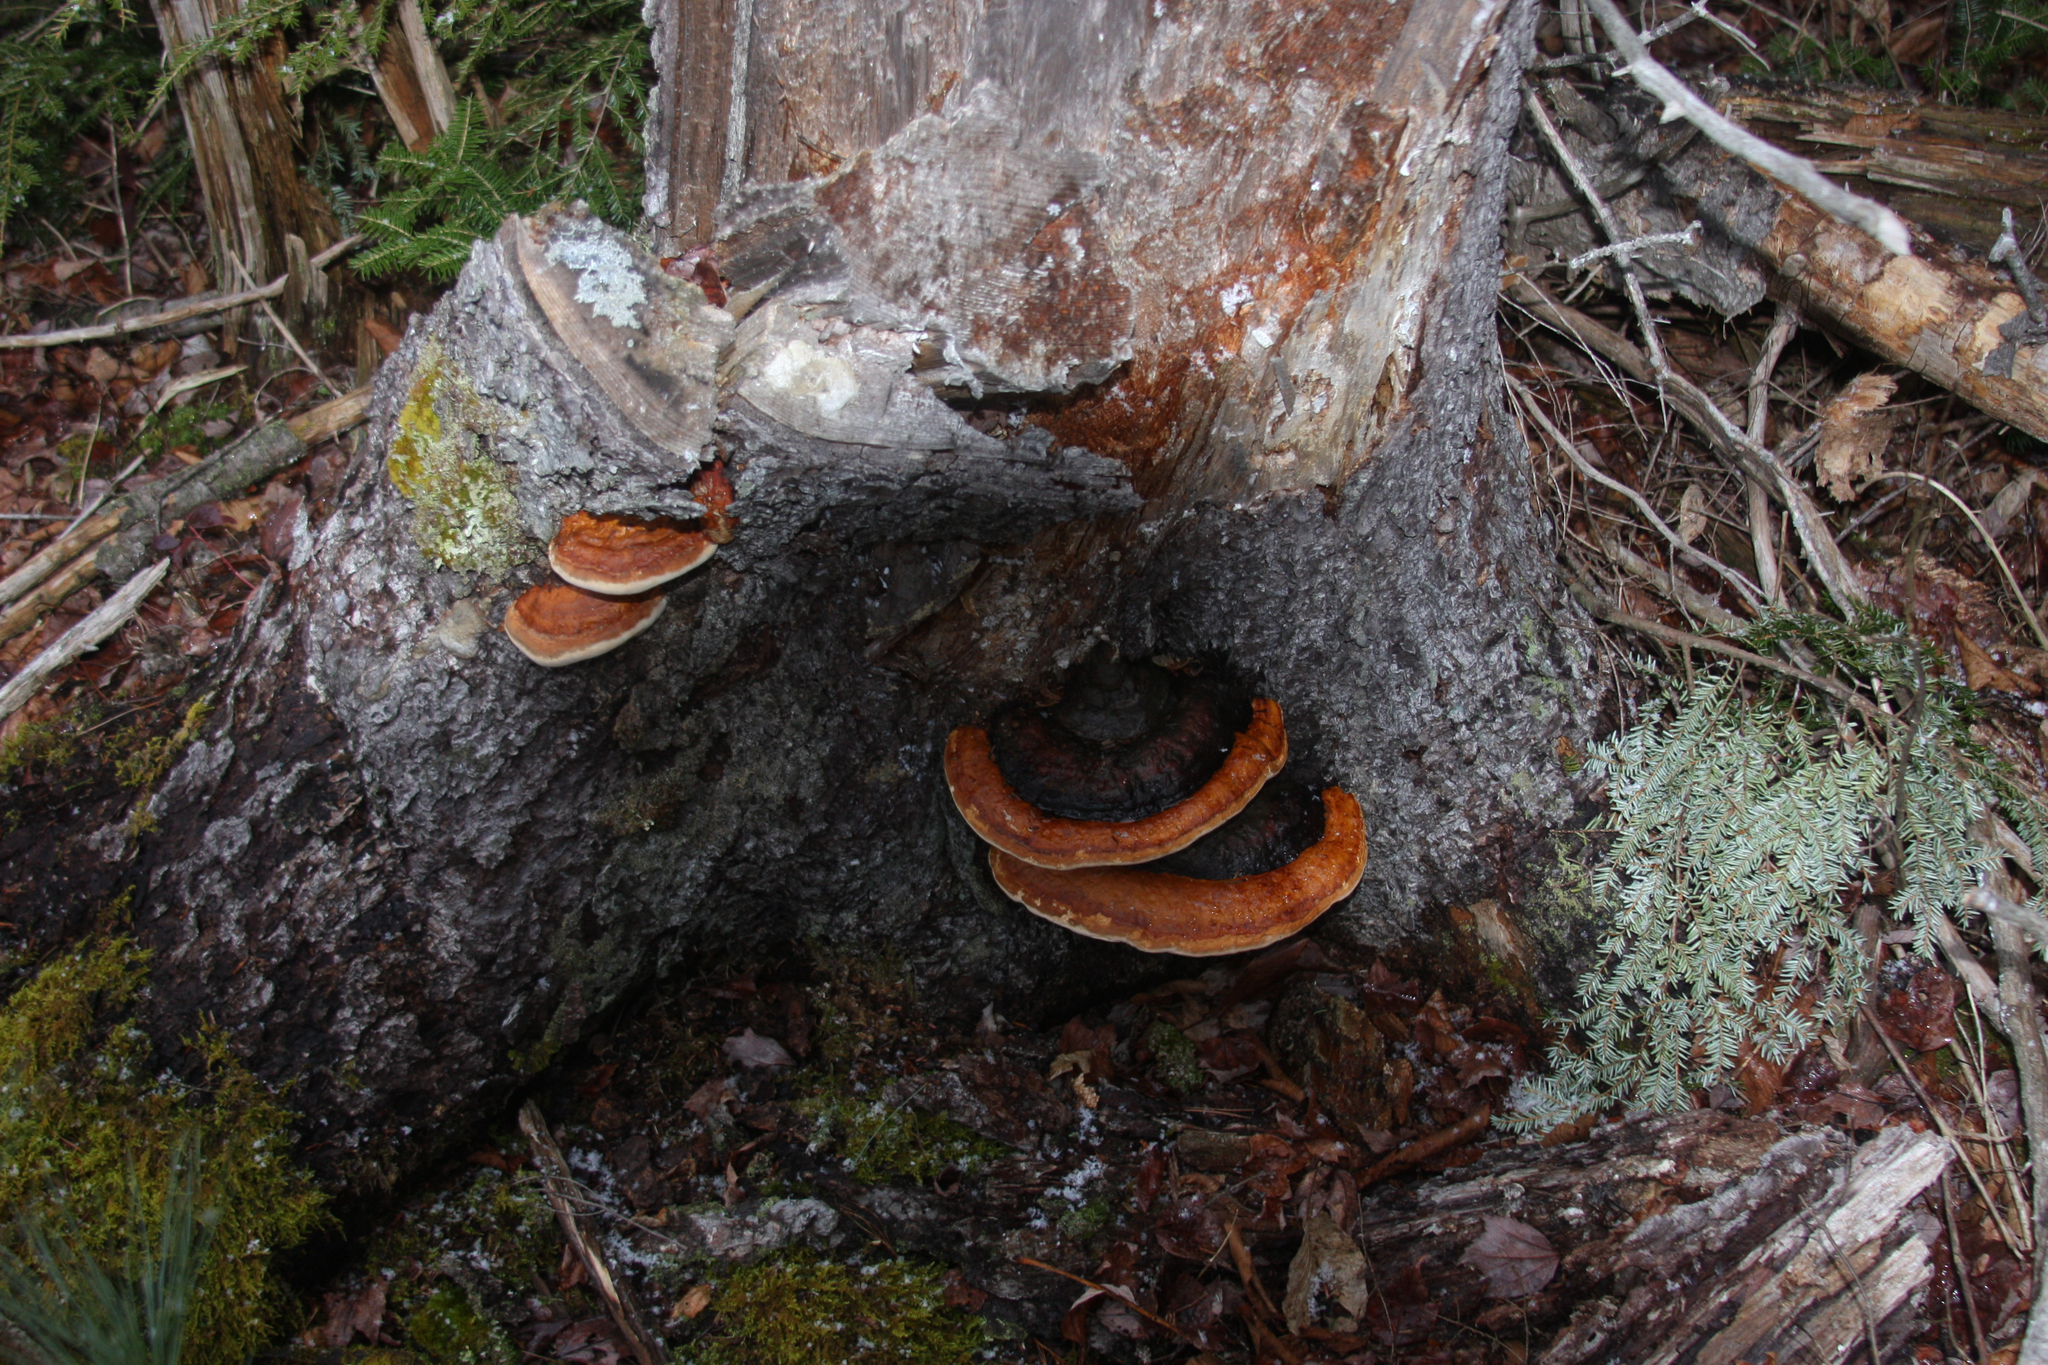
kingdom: Fungi
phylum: Basidiomycota
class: Agaricomycetes
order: Polyporales
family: Fomitopsidaceae
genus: Fomitopsis
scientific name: Fomitopsis mounceae
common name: Northern red belt
